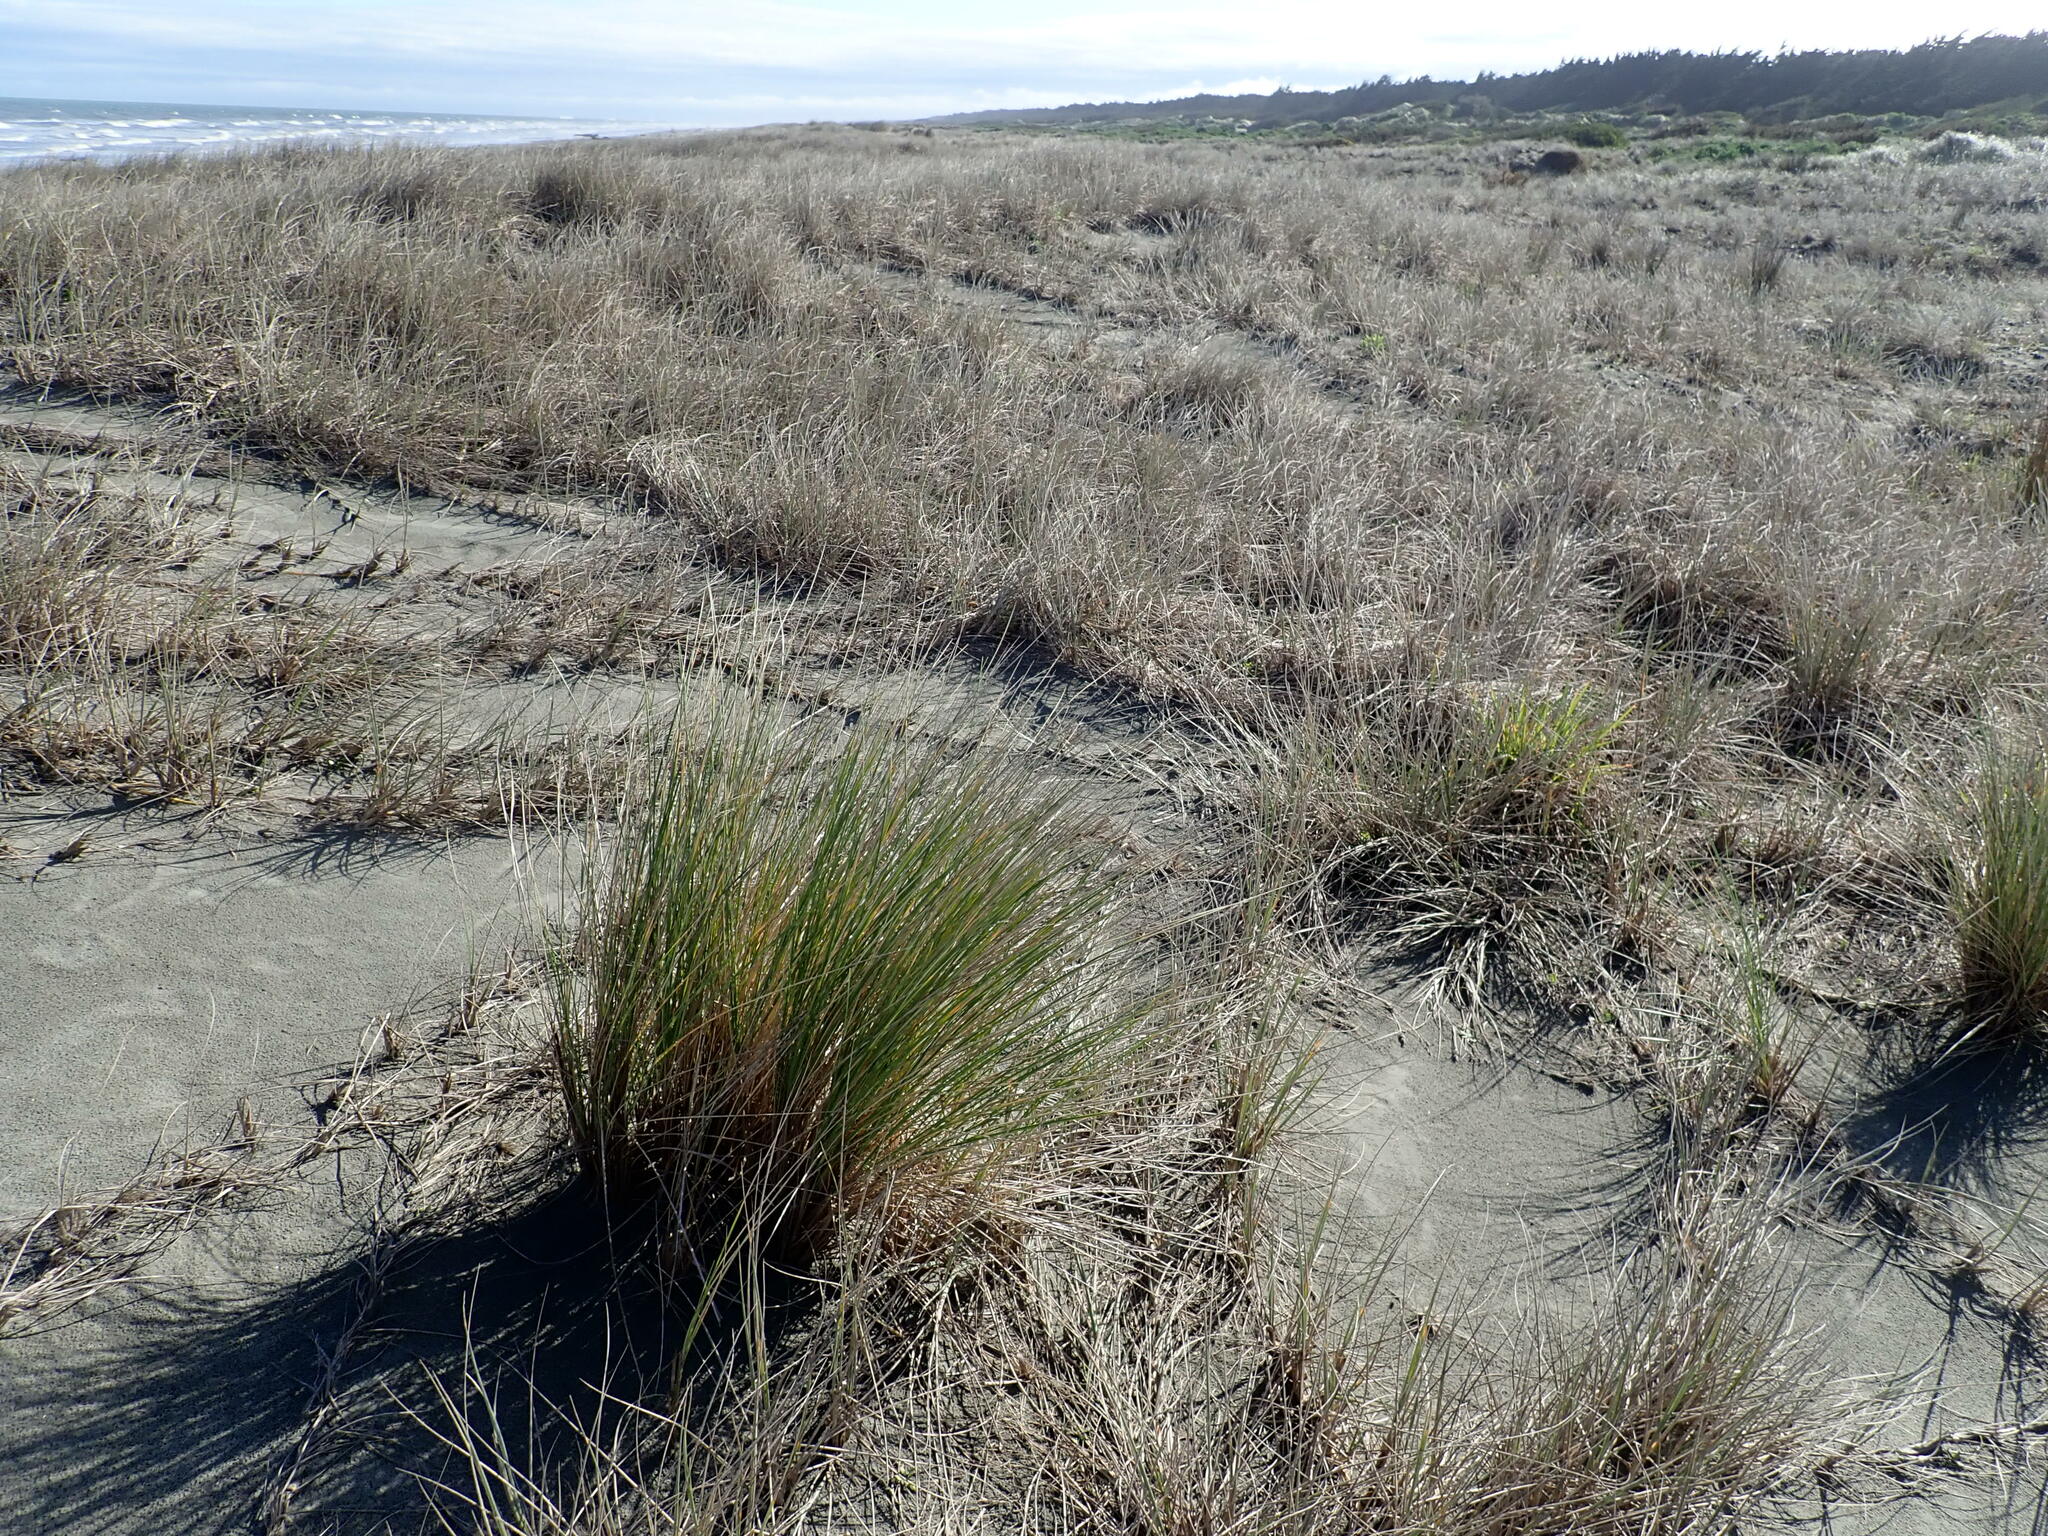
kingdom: Plantae
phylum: Tracheophyta
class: Liliopsida
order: Poales
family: Poaceae
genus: Calamagrostis
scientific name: Calamagrostis arenaria
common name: European beachgrass
